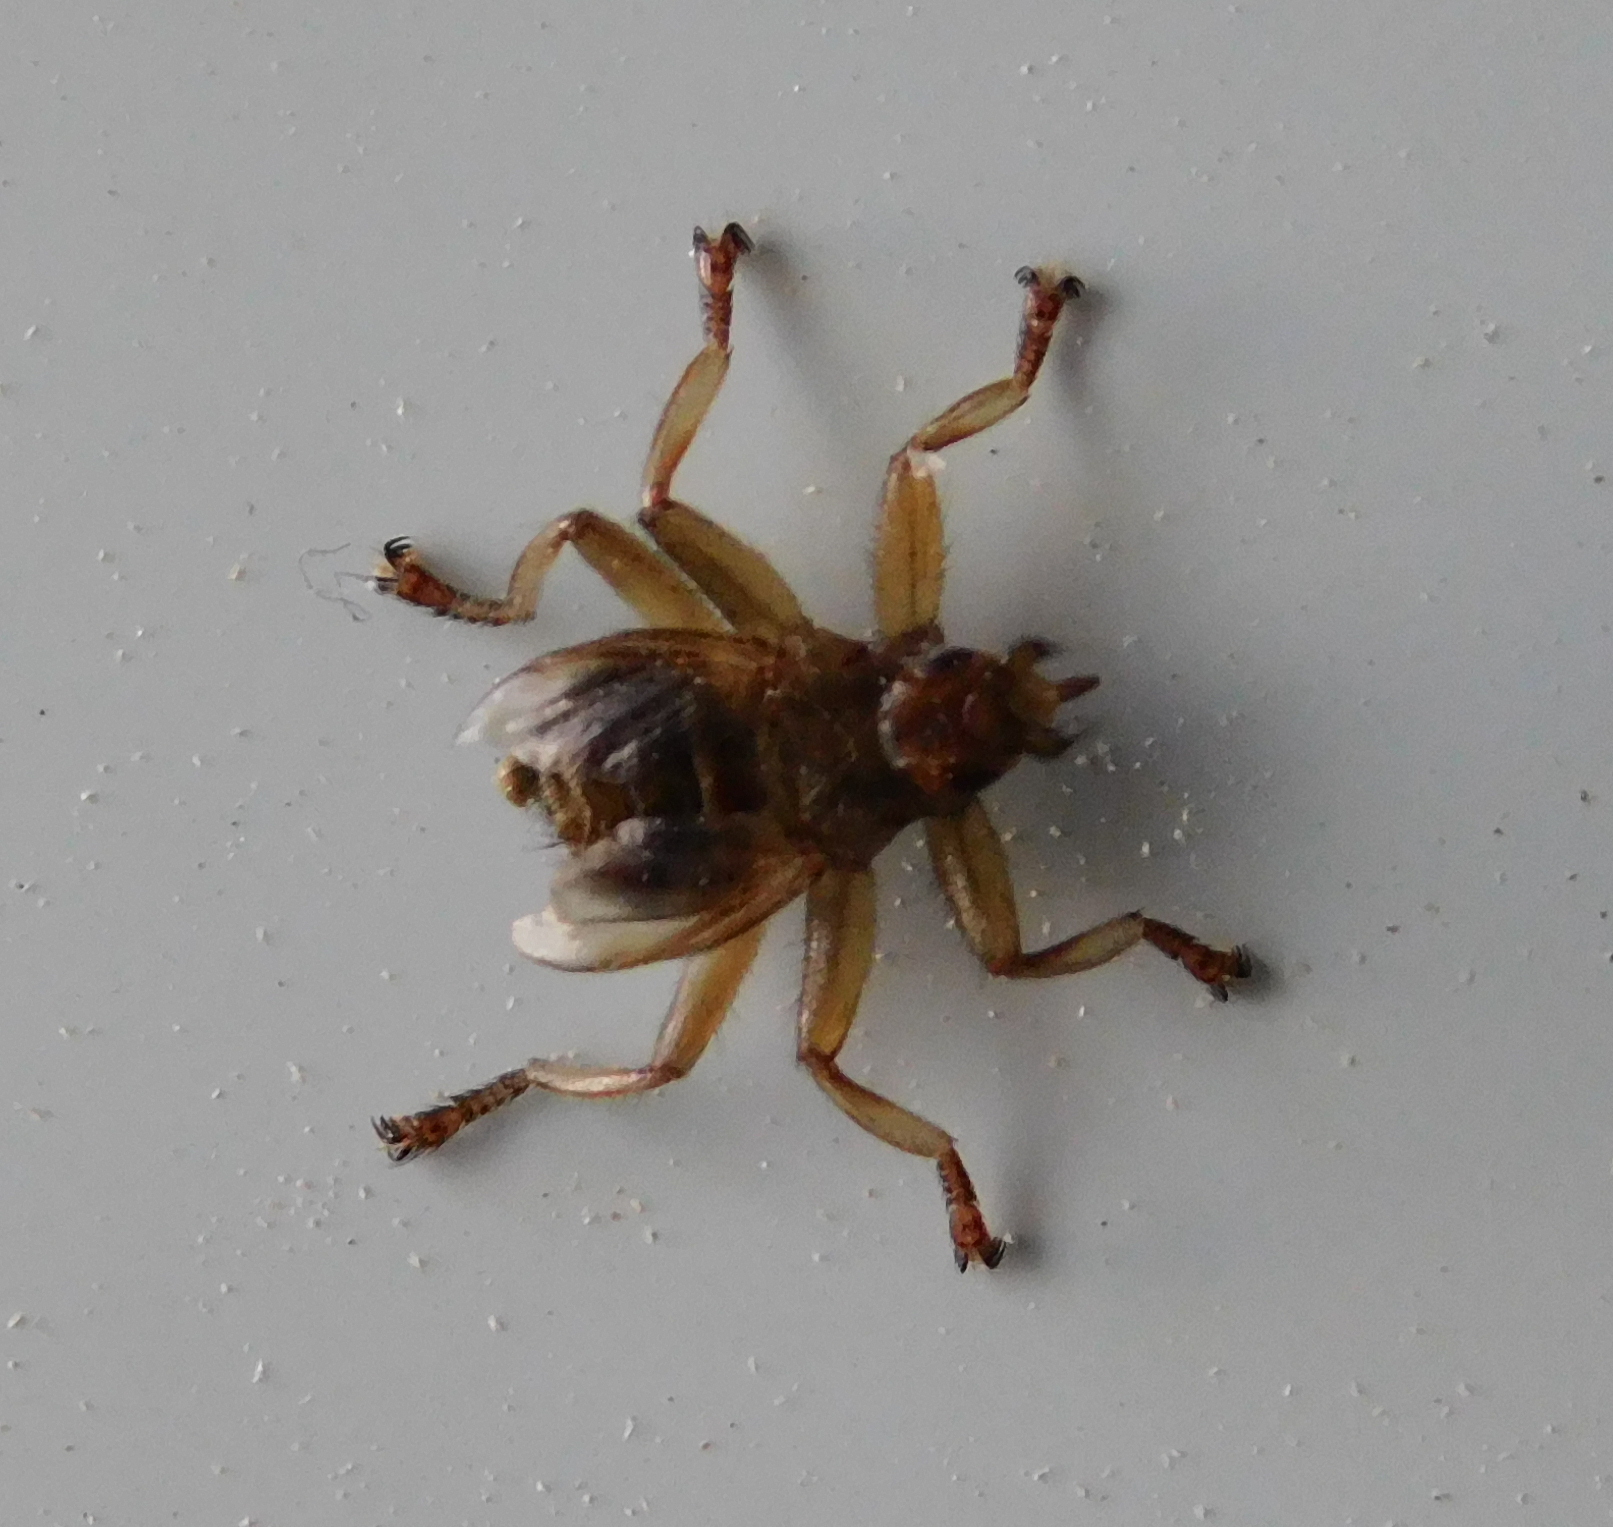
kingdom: Animalia
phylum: Arthropoda
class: Insecta
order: Diptera
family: Hippoboscidae
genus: Crataerina
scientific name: Crataerina pallida
